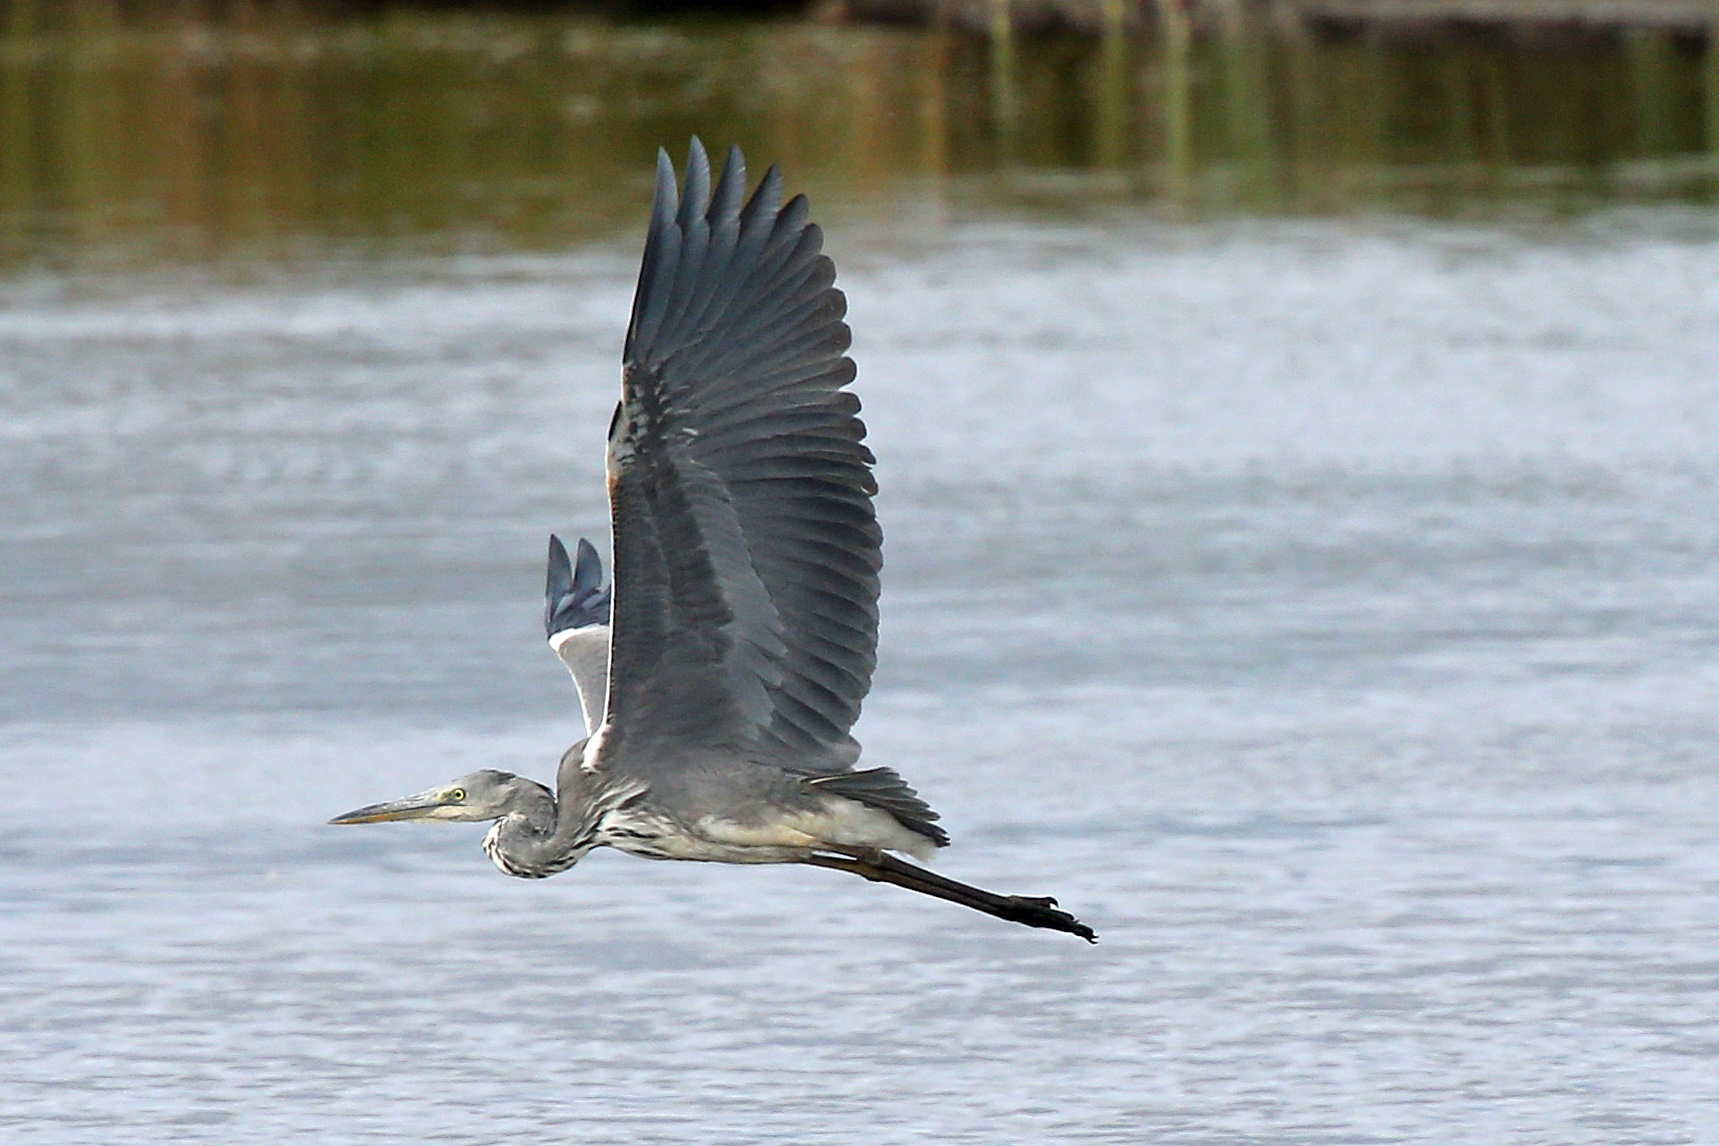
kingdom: Animalia
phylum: Chordata
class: Aves
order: Pelecaniformes
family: Ardeidae
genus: Ardea
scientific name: Ardea cinerea
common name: Grey heron
